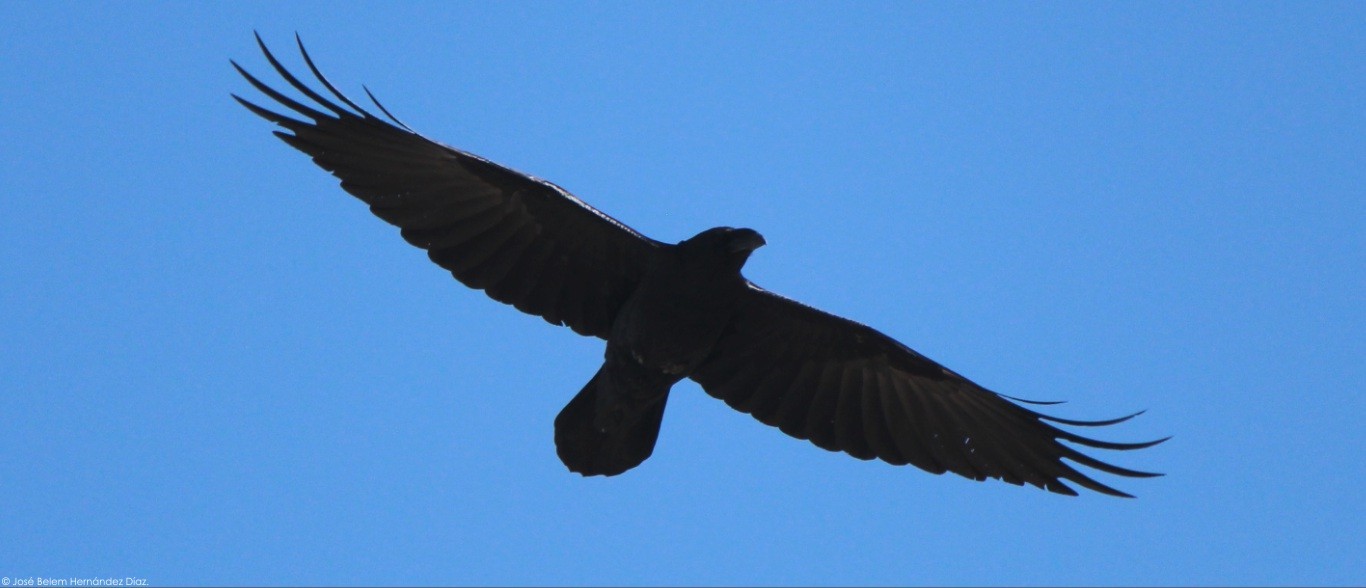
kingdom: Animalia
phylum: Chordata
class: Aves
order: Passeriformes
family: Corvidae
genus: Corvus
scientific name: Corvus corax
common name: Common raven
